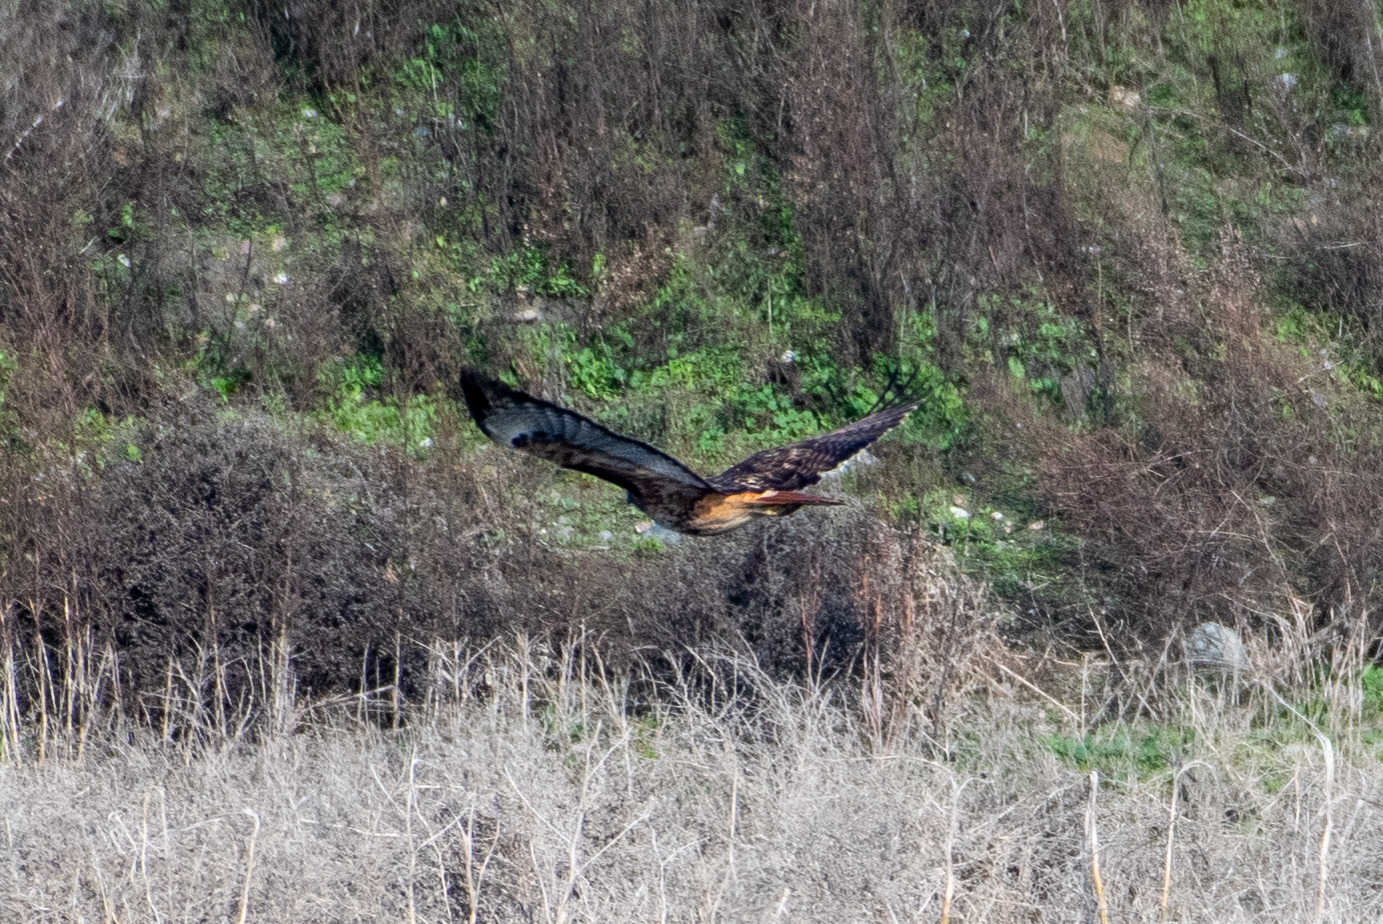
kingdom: Animalia
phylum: Chordata
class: Aves
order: Accipitriformes
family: Accipitridae
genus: Buteo
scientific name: Buteo jamaicensis
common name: Red-tailed hawk
